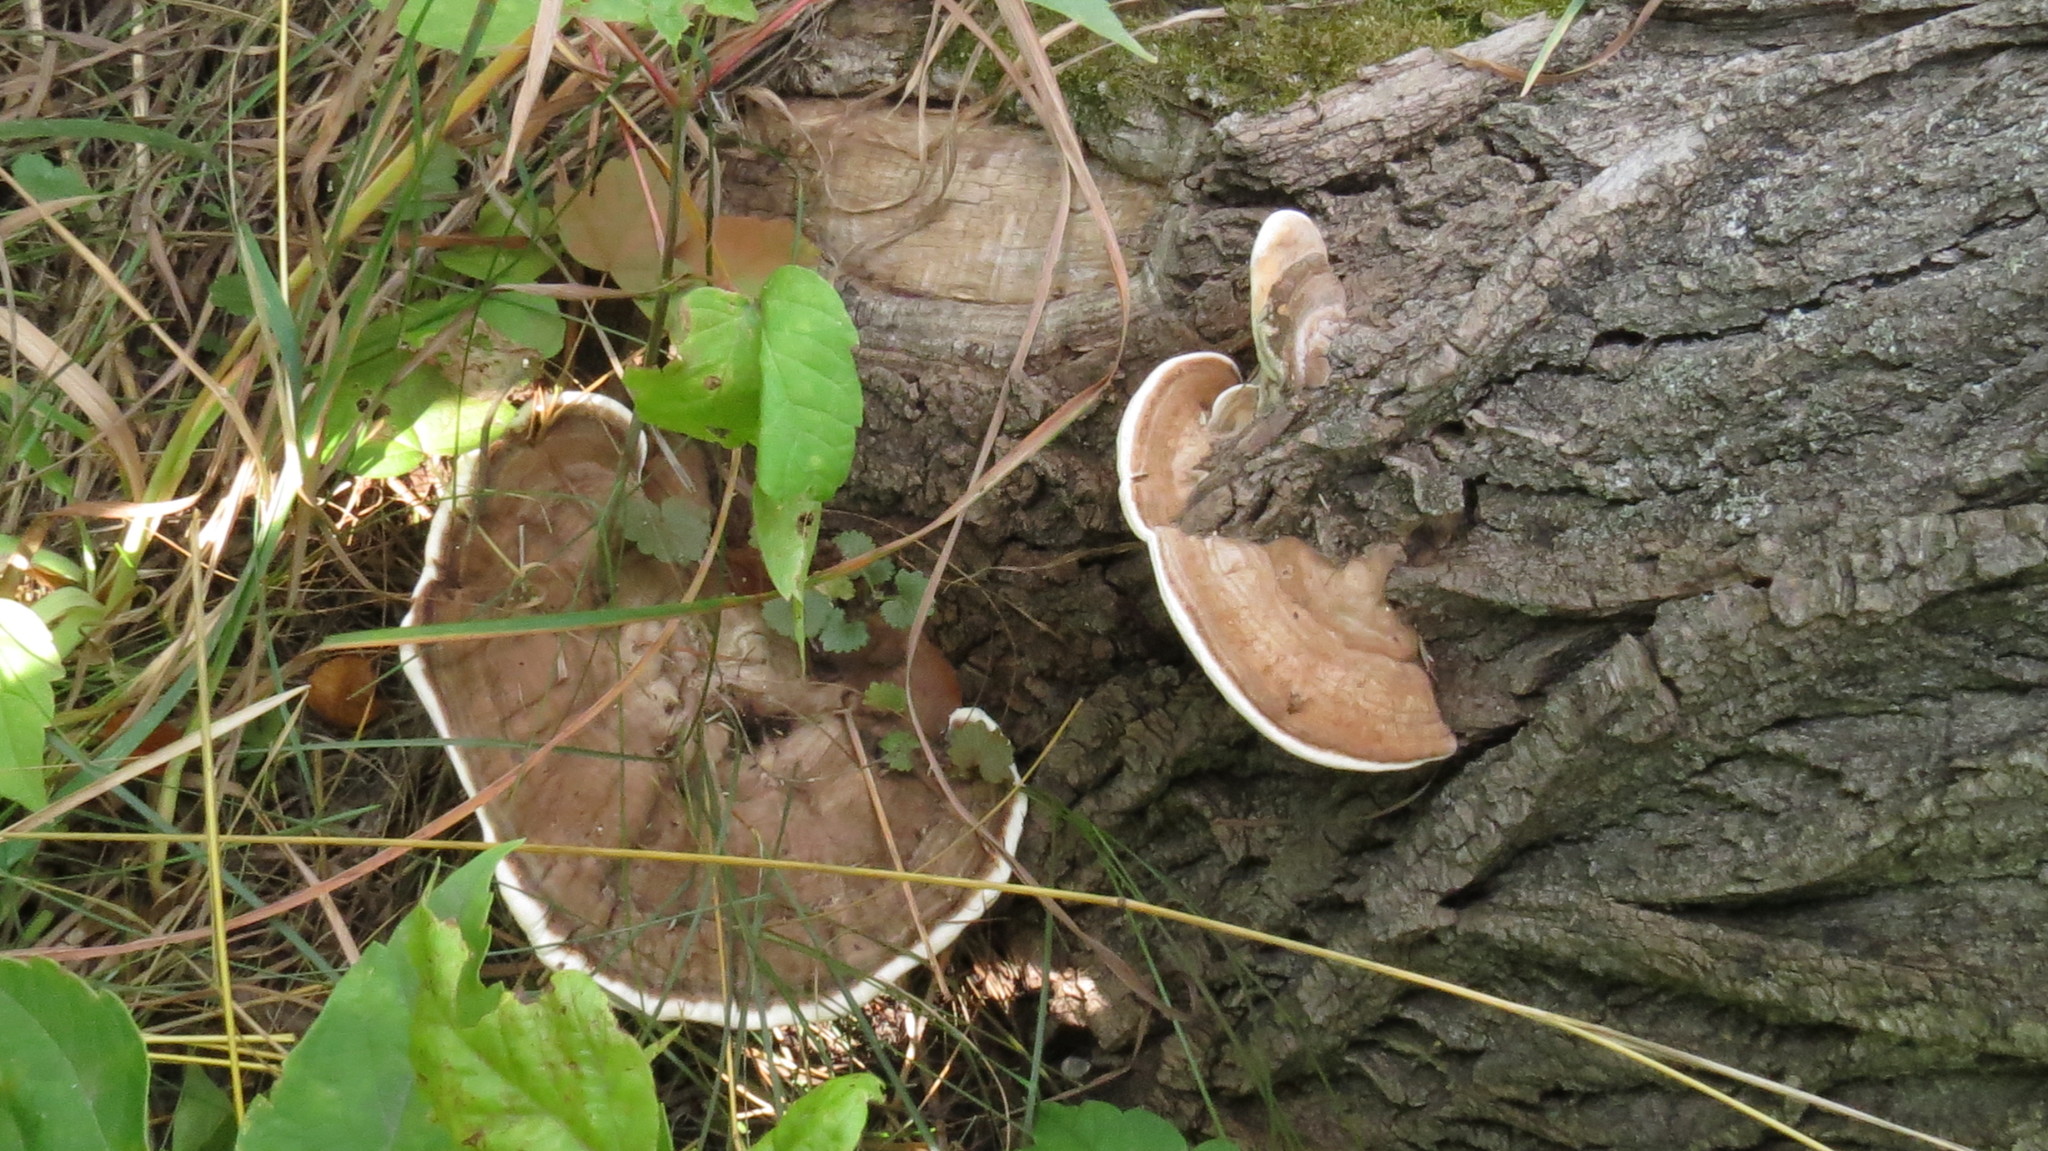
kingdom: Fungi
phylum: Basidiomycota
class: Agaricomycetes
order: Polyporales
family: Polyporaceae
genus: Ganoderma
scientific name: Ganoderma applanatum
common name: Artist's bracket
